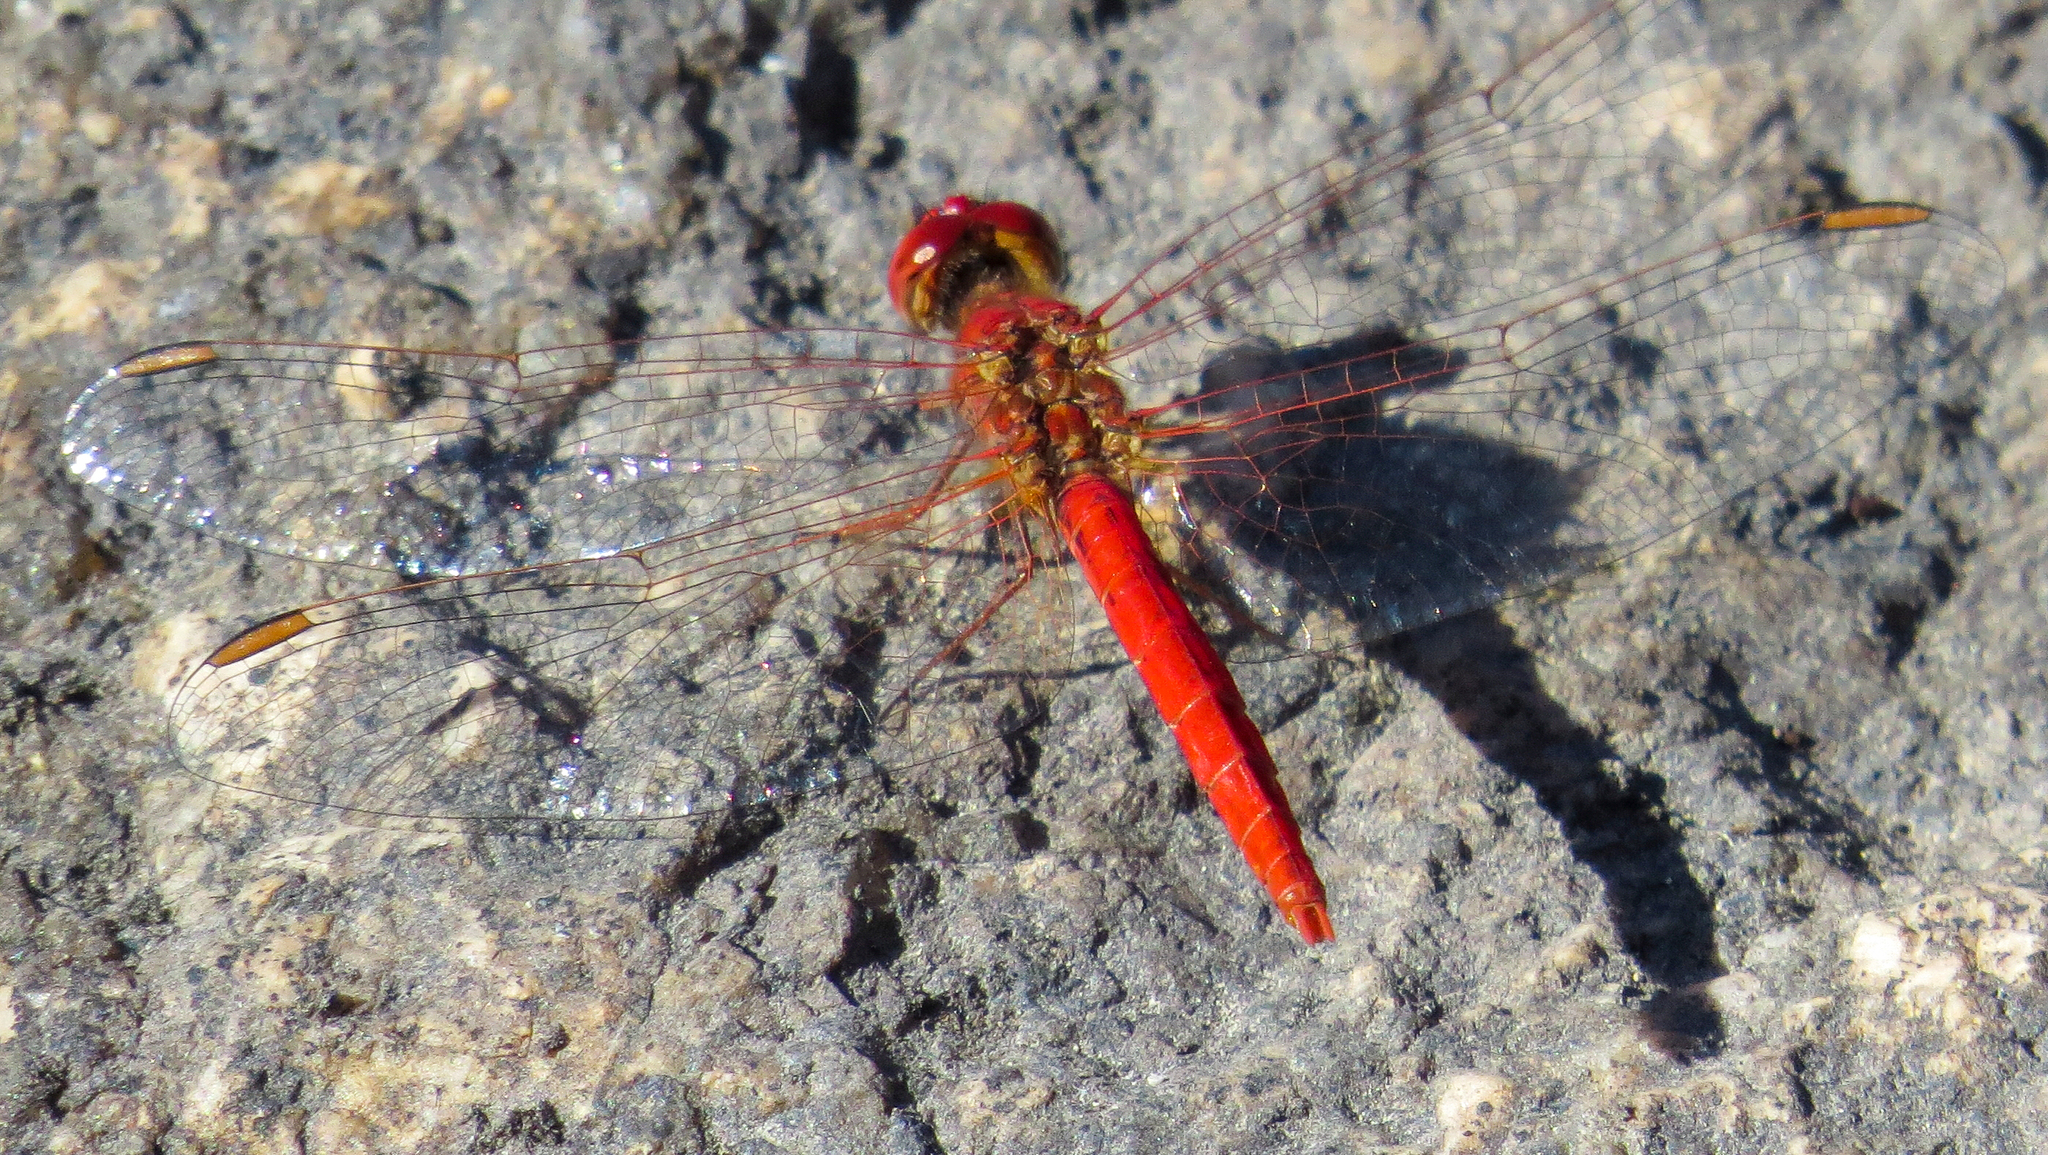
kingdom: Animalia
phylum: Arthropoda
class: Insecta
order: Odonata
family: Libellulidae
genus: Diplacodes
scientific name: Diplacodes haematodes
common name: Scarlet percher
